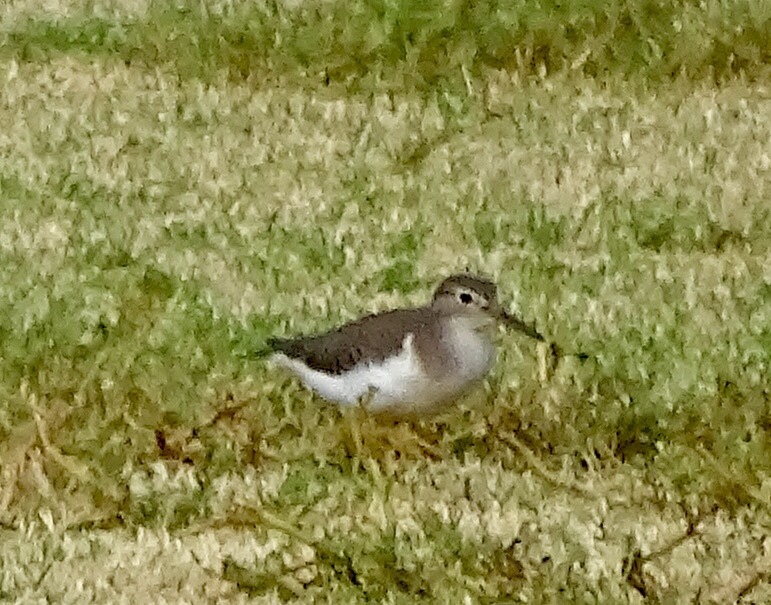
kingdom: Animalia
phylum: Chordata
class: Aves
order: Charadriiformes
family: Scolopacidae
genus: Actitis
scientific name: Actitis macularius
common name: Spotted sandpiper
